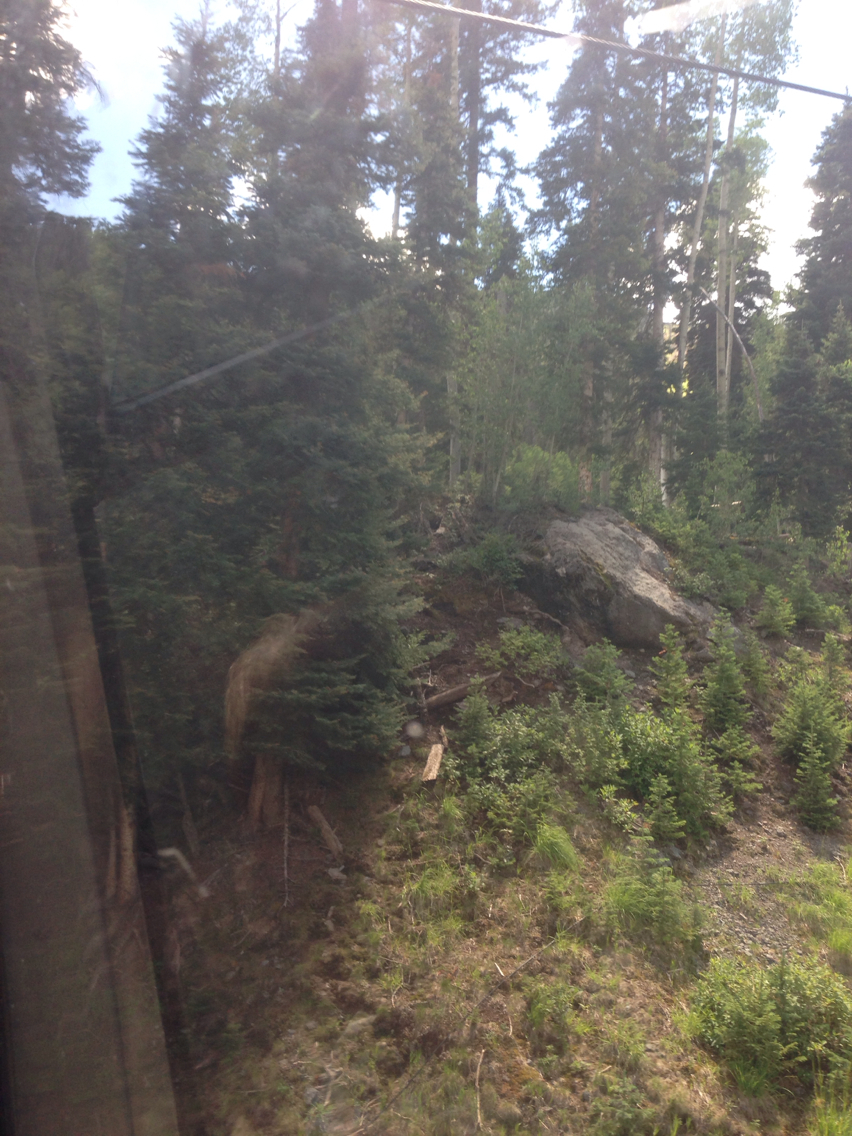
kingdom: Plantae
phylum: Tracheophyta
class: Pinopsida
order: Pinales
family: Pinaceae
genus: Abies
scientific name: Abies lasiocarpa
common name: Subalpine fir
